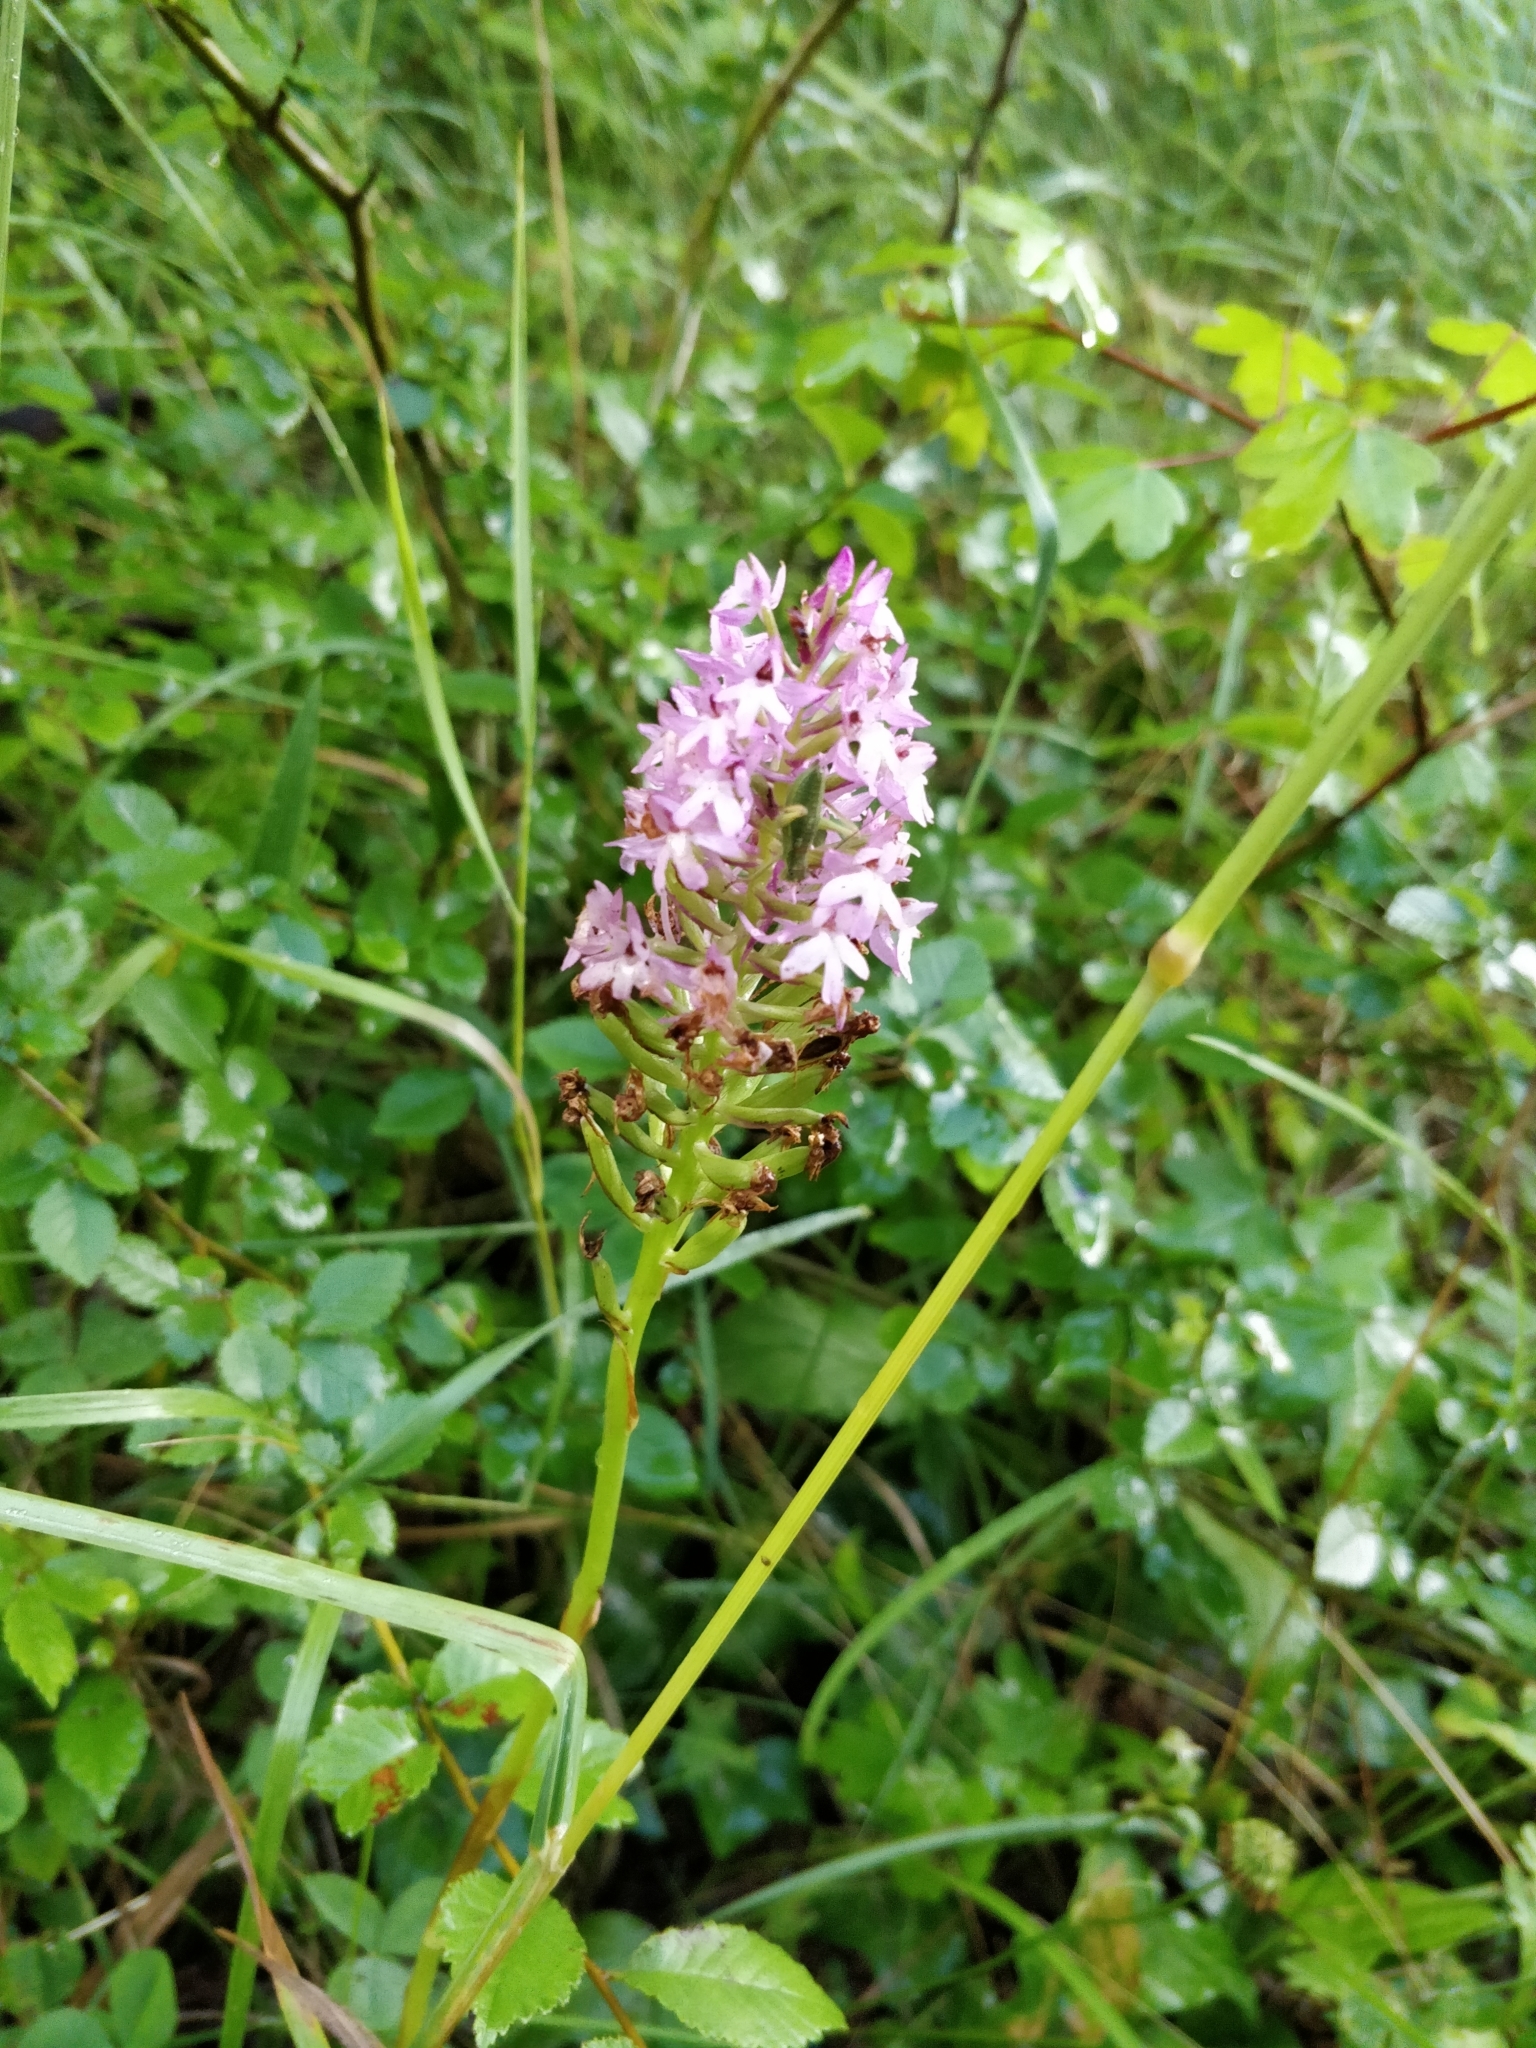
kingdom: Plantae
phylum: Tracheophyta
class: Liliopsida
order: Asparagales
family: Orchidaceae
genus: Anacamptis
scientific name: Anacamptis pyramidalis
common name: Pyramidal orchid
